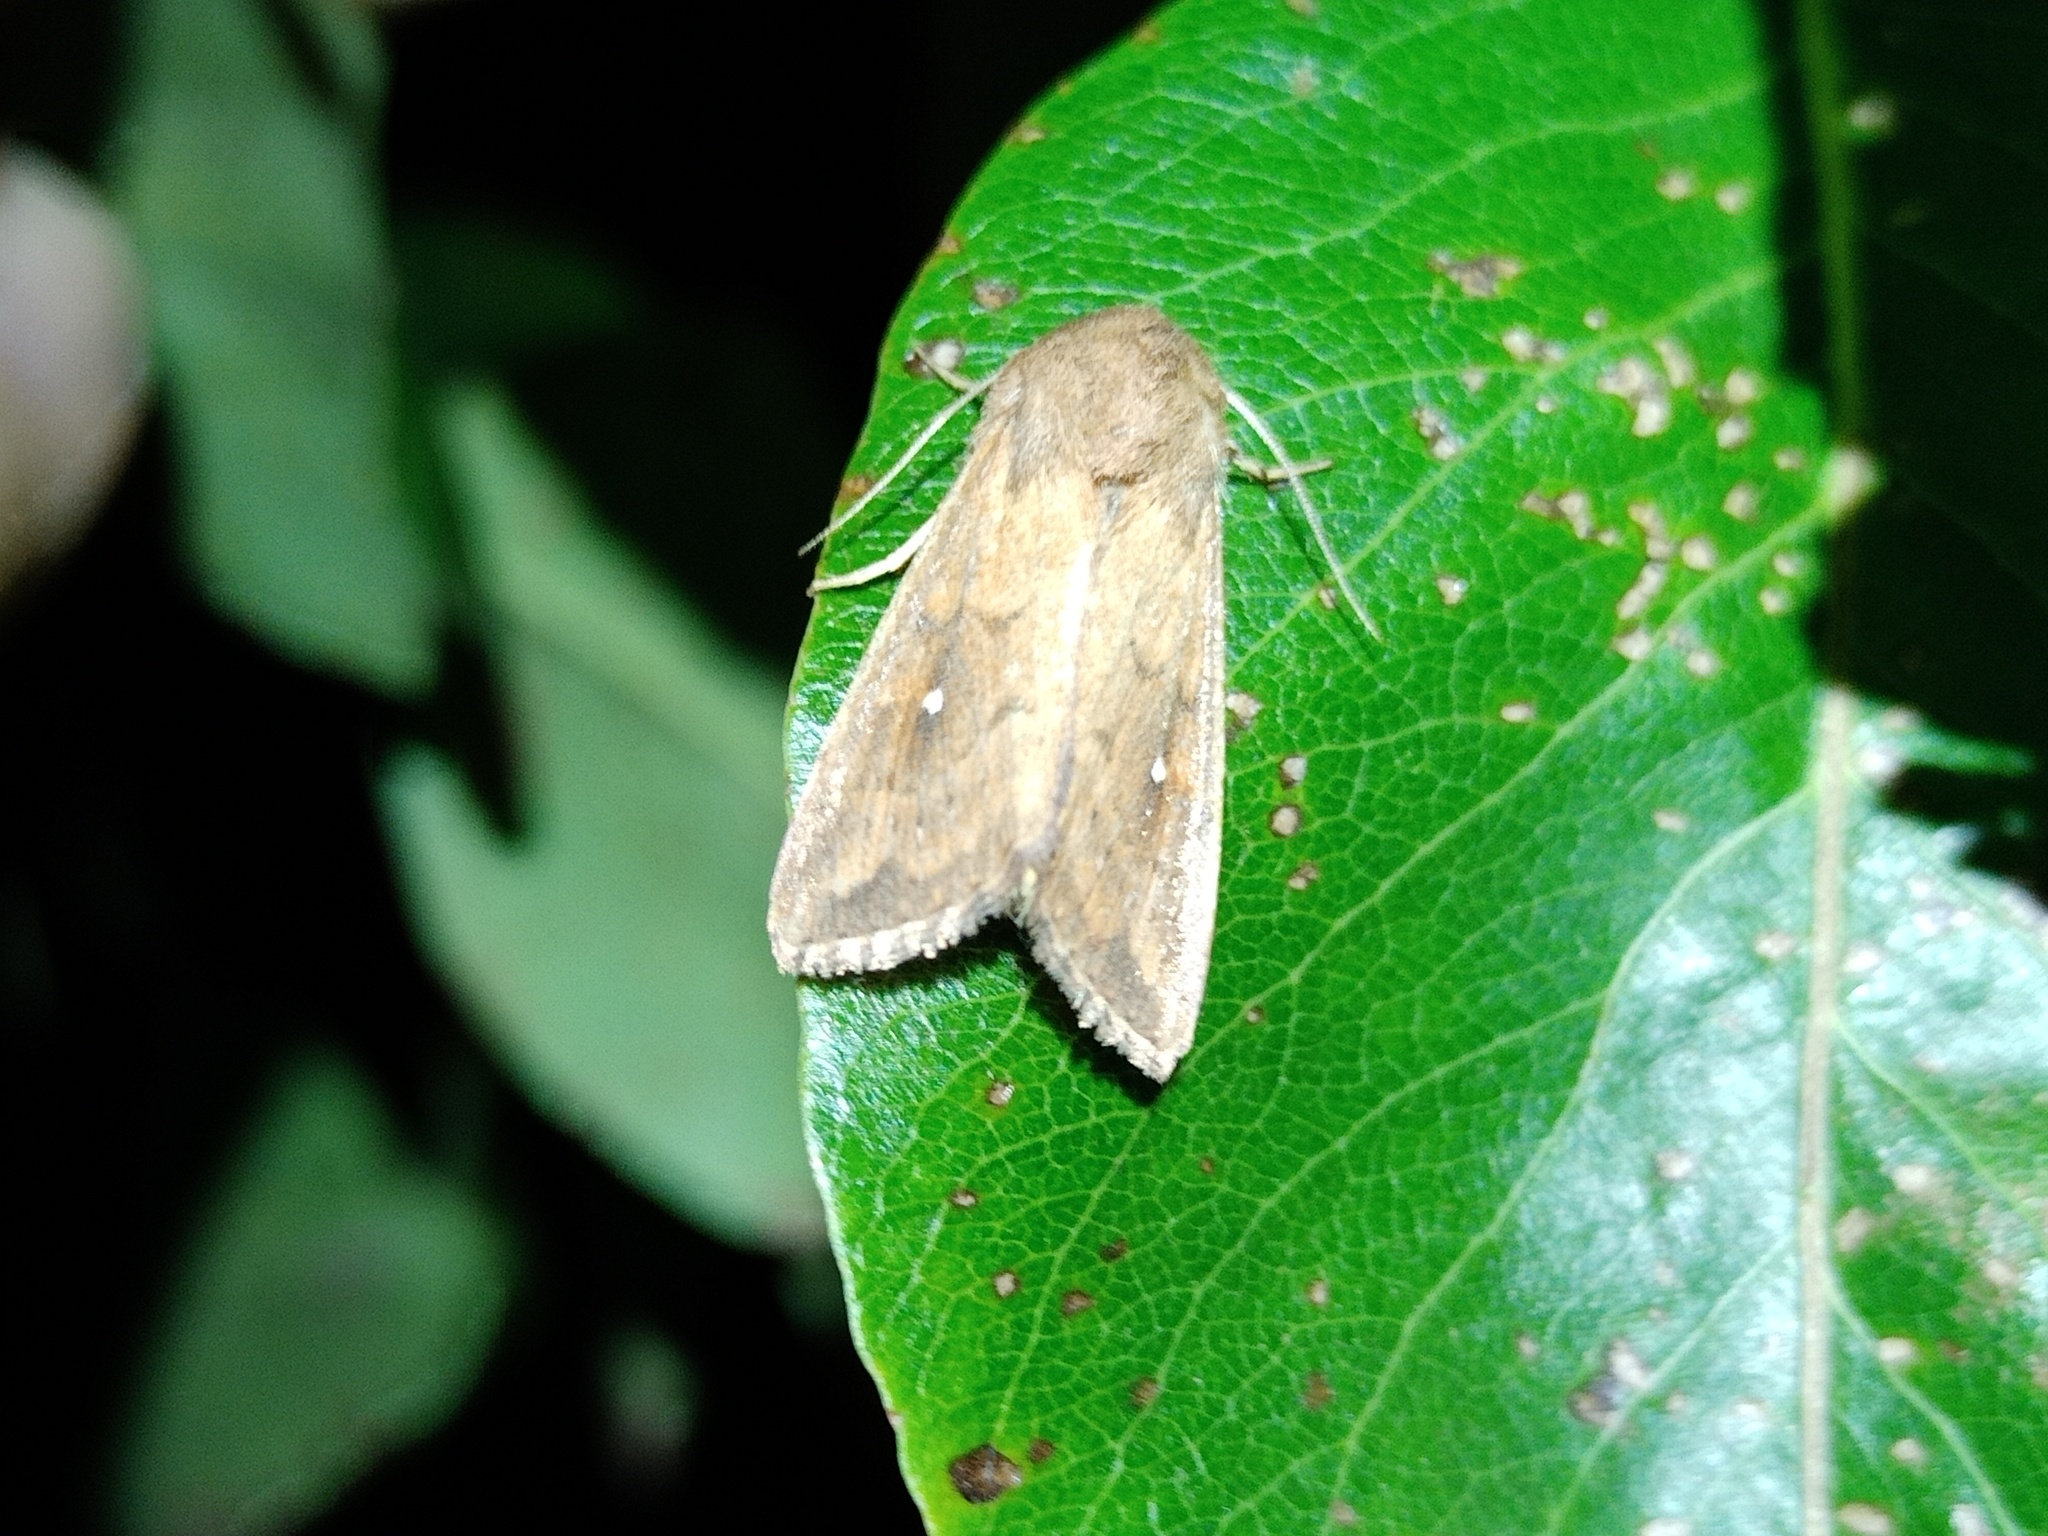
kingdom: Animalia
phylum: Arthropoda
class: Insecta
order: Lepidoptera
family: Noctuidae
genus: Mythimna
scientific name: Mythimna albipuncta
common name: White-point
